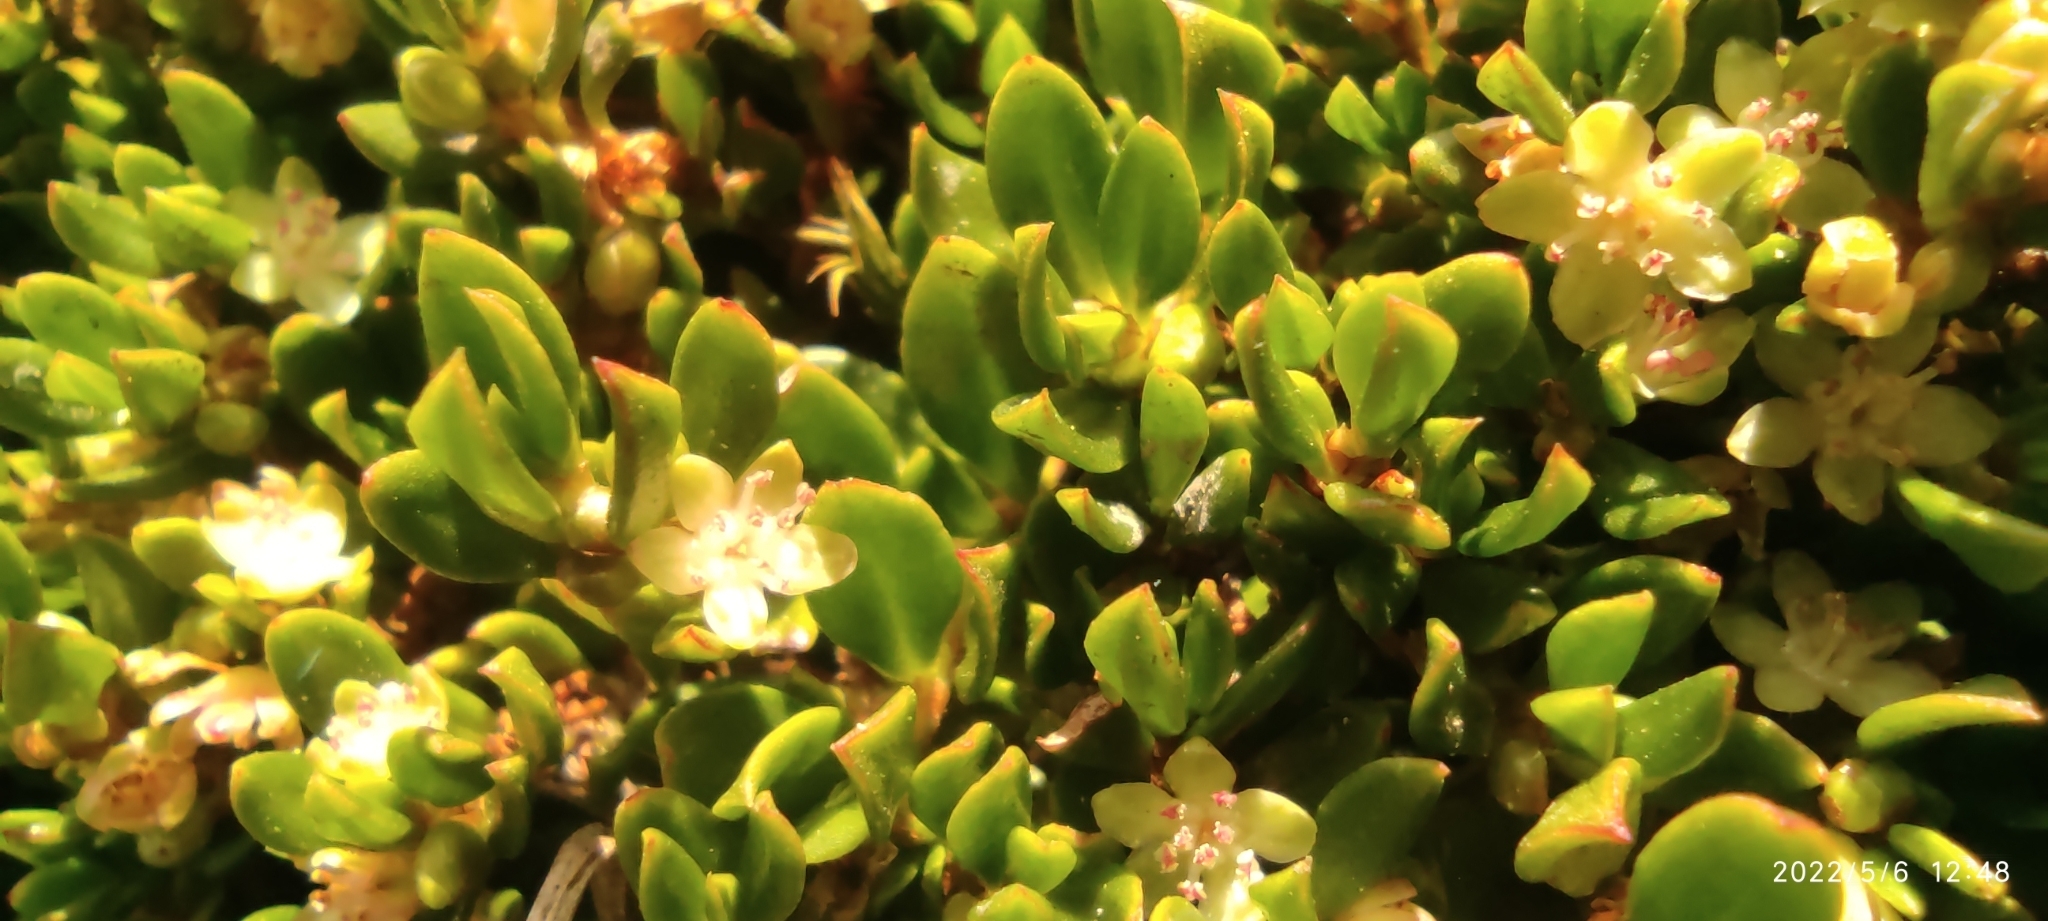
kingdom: Plantae
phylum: Tracheophyta
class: Magnoliopsida
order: Caryophyllales
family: Polygonaceae
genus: Muehlenbeckia
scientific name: Muehlenbeckia volcanica
